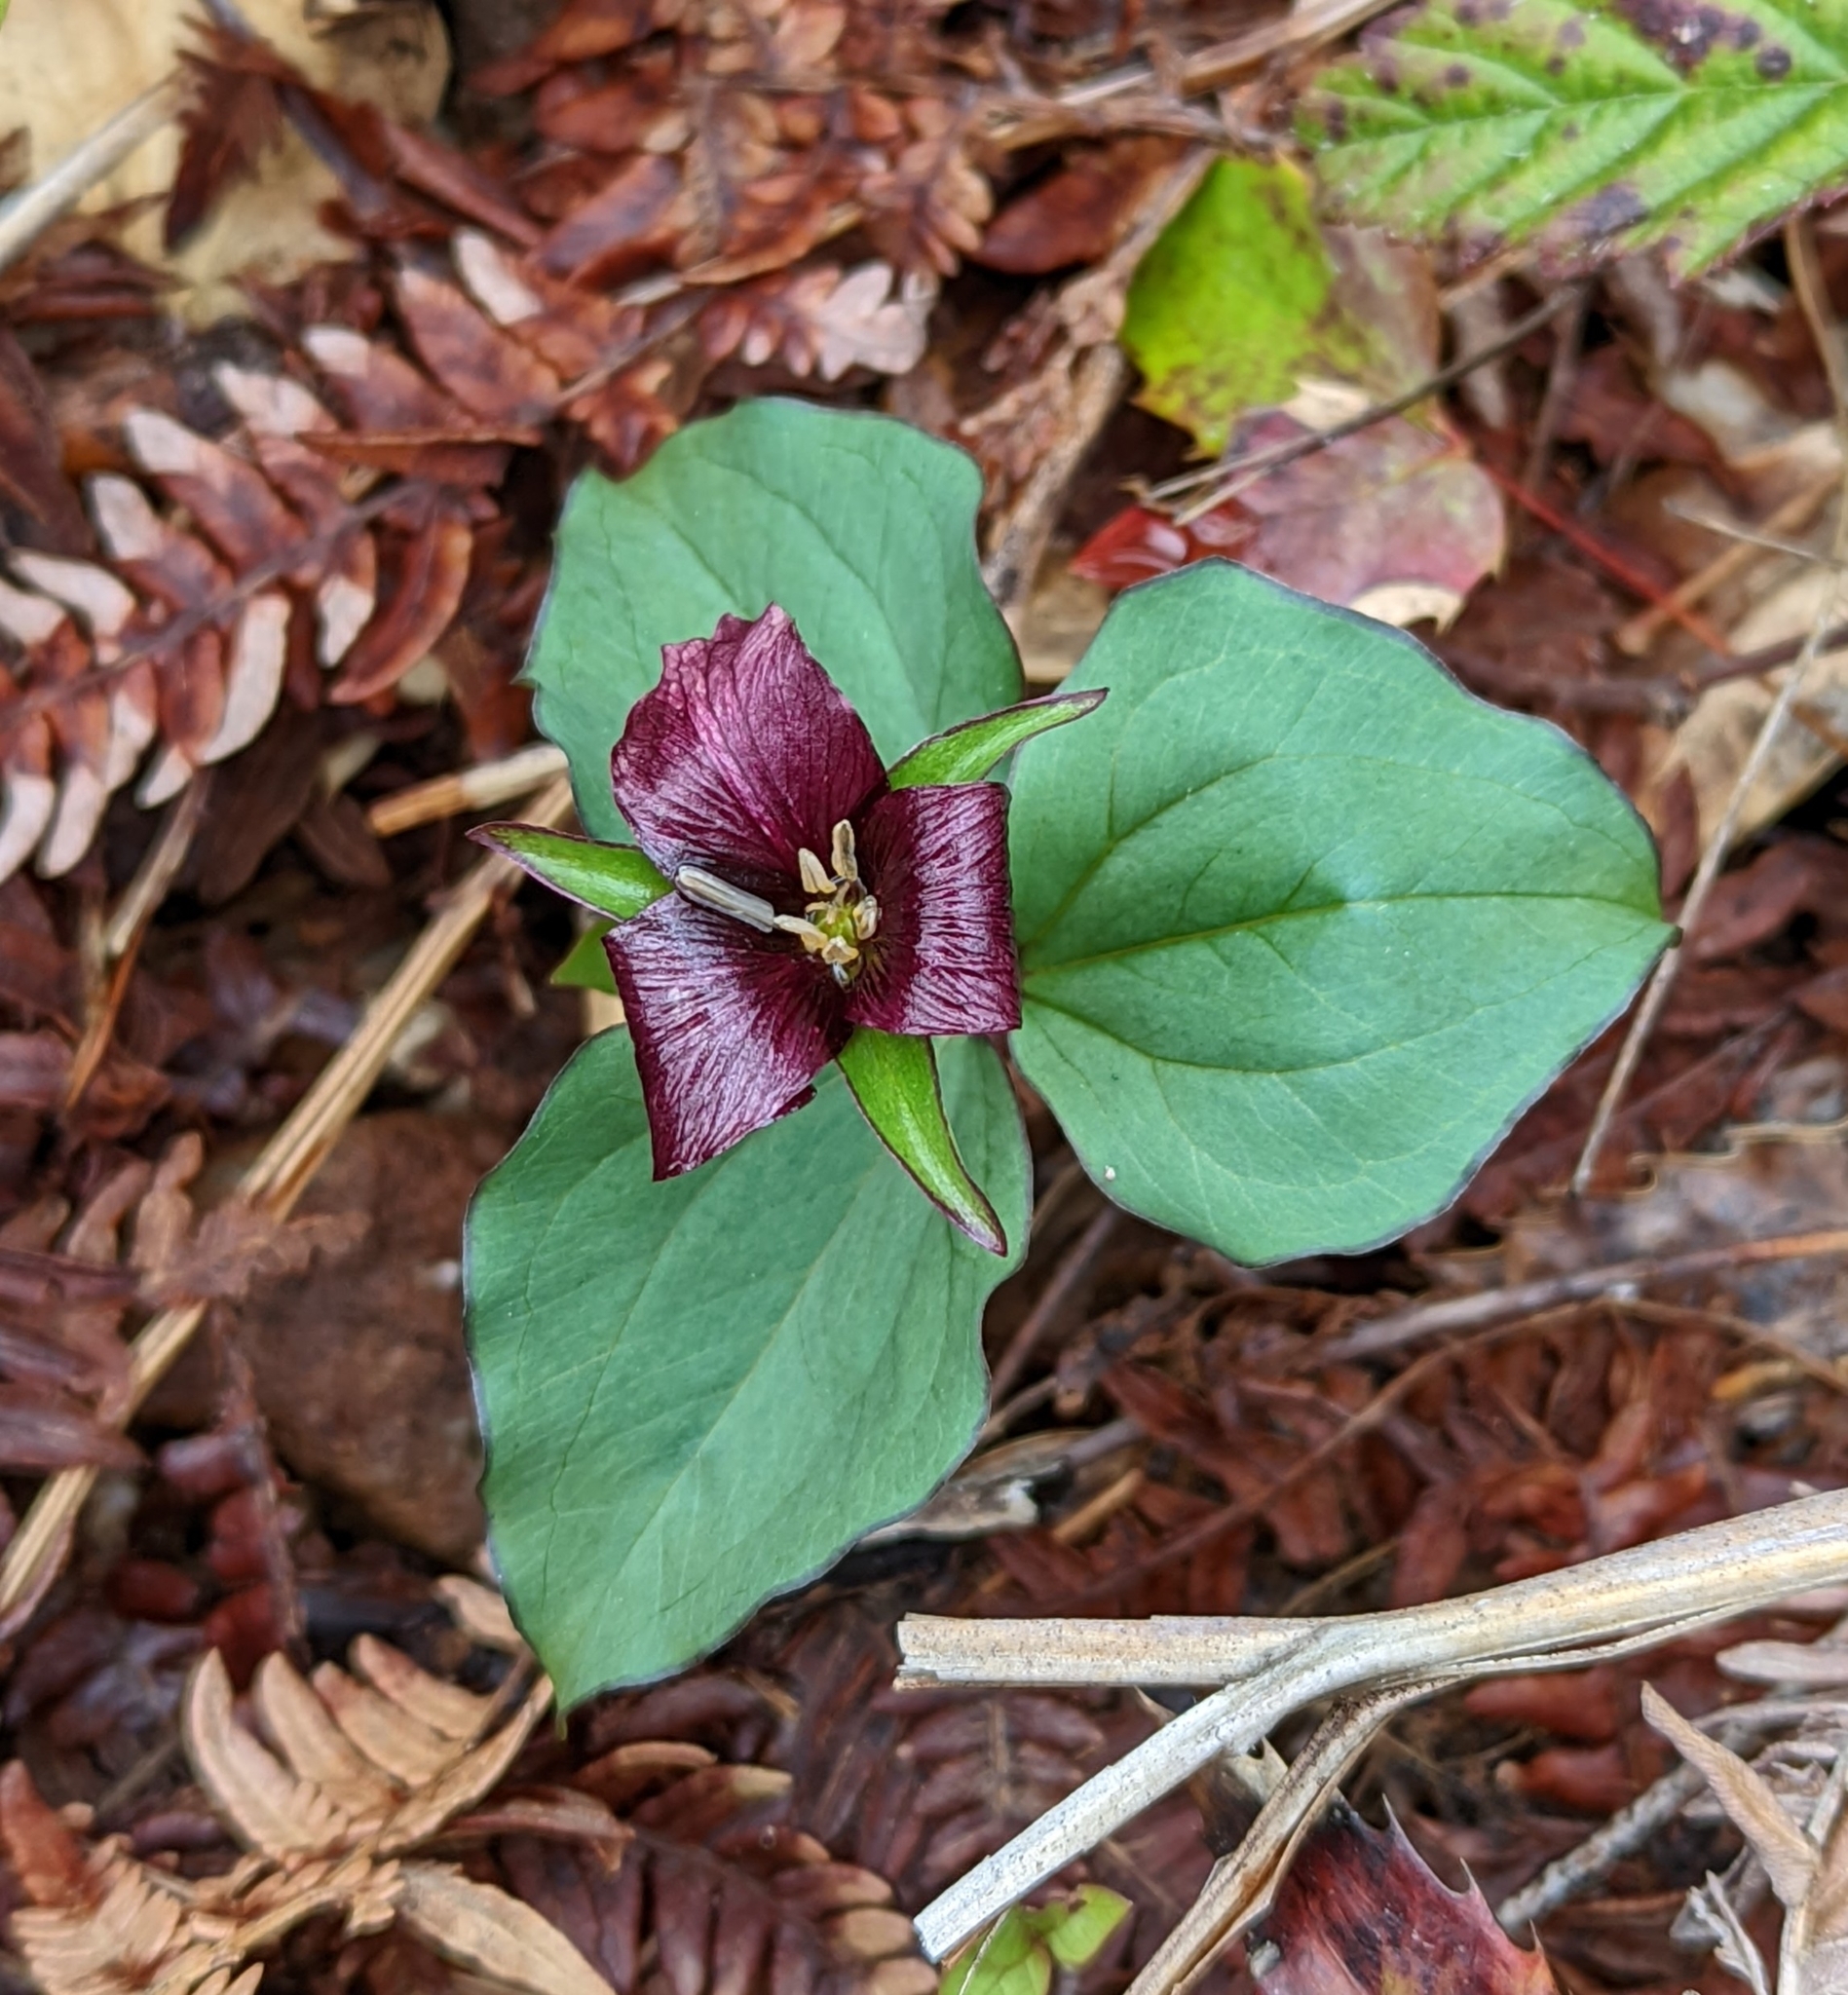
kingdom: Plantae
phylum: Tracheophyta
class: Liliopsida
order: Liliales
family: Melanthiaceae
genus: Trillium
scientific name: Trillium ovatum
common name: Pacific trillium
